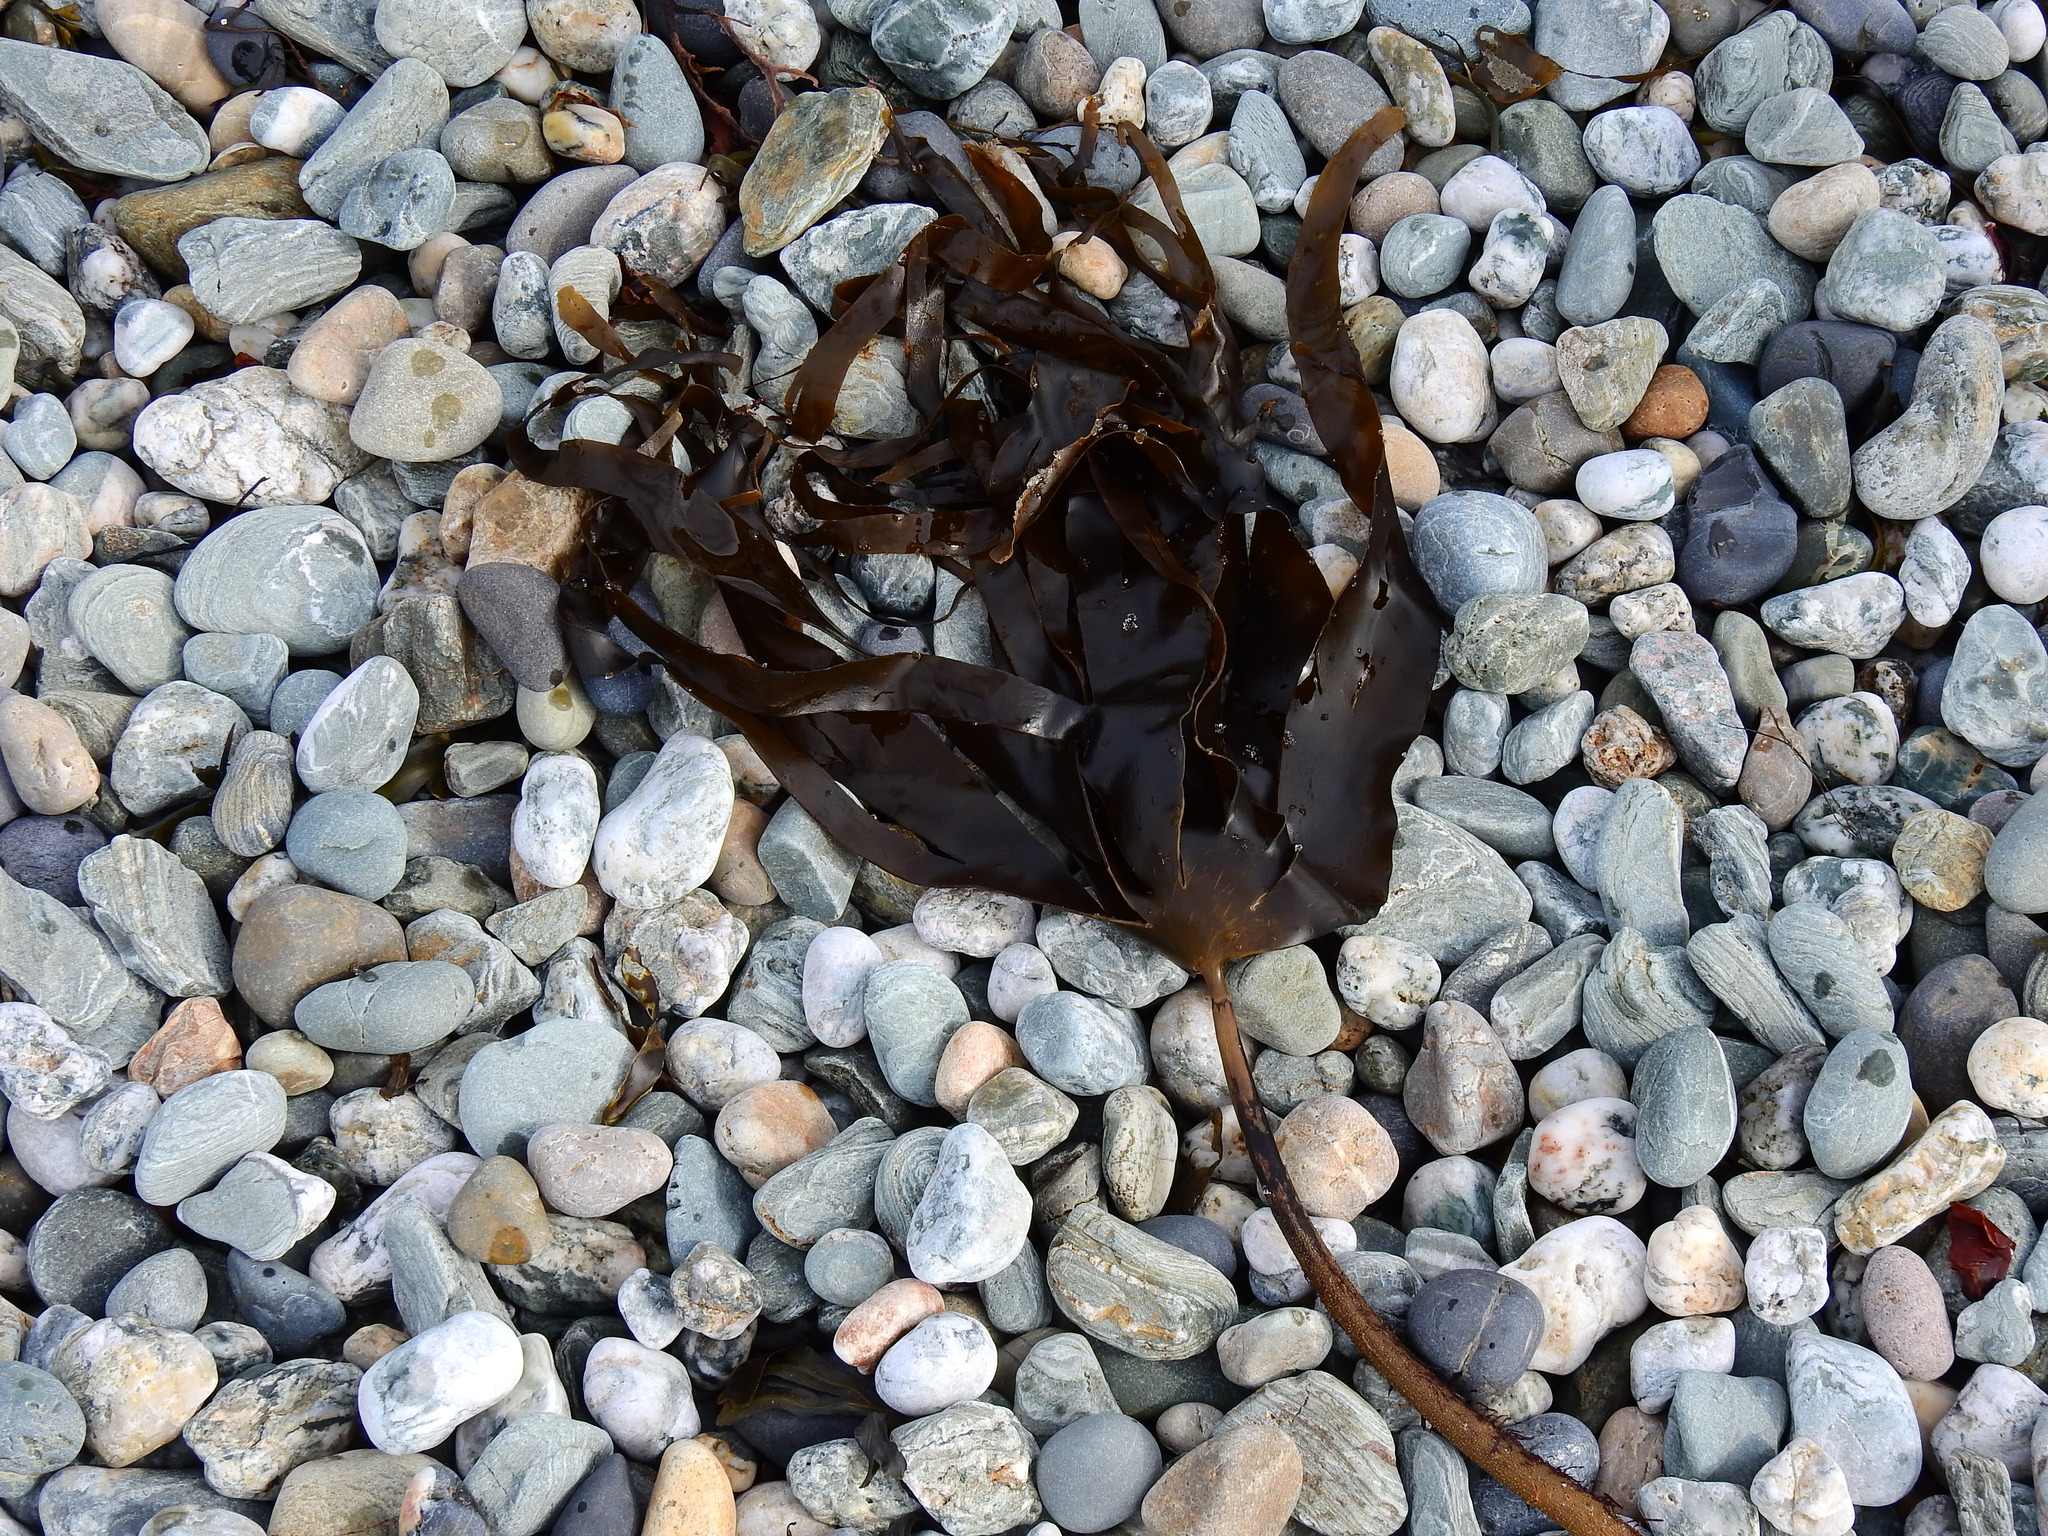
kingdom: Chromista
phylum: Ochrophyta
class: Phaeophyceae
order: Laminariales
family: Laminariaceae
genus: Laminaria
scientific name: Laminaria hyperborea
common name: Cuvie
